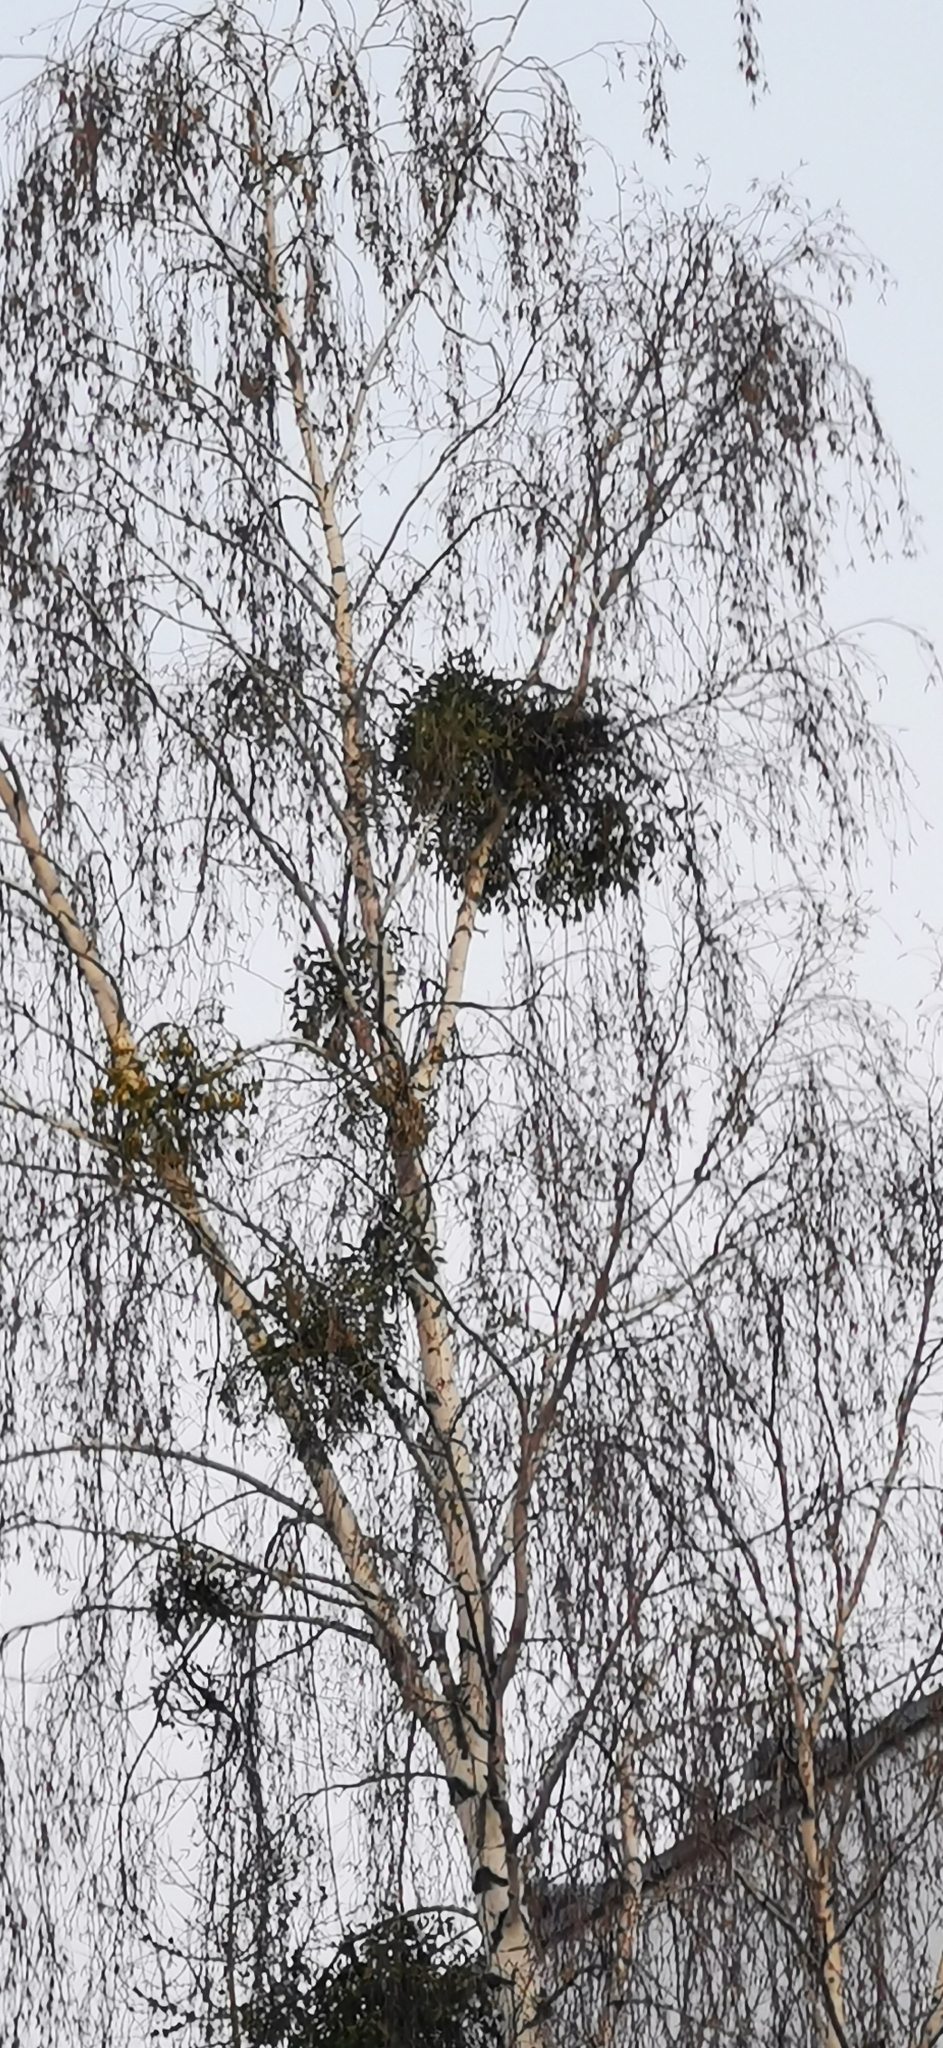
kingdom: Plantae
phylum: Tracheophyta
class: Magnoliopsida
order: Santalales
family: Viscaceae
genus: Viscum
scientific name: Viscum album
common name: Mistletoe
